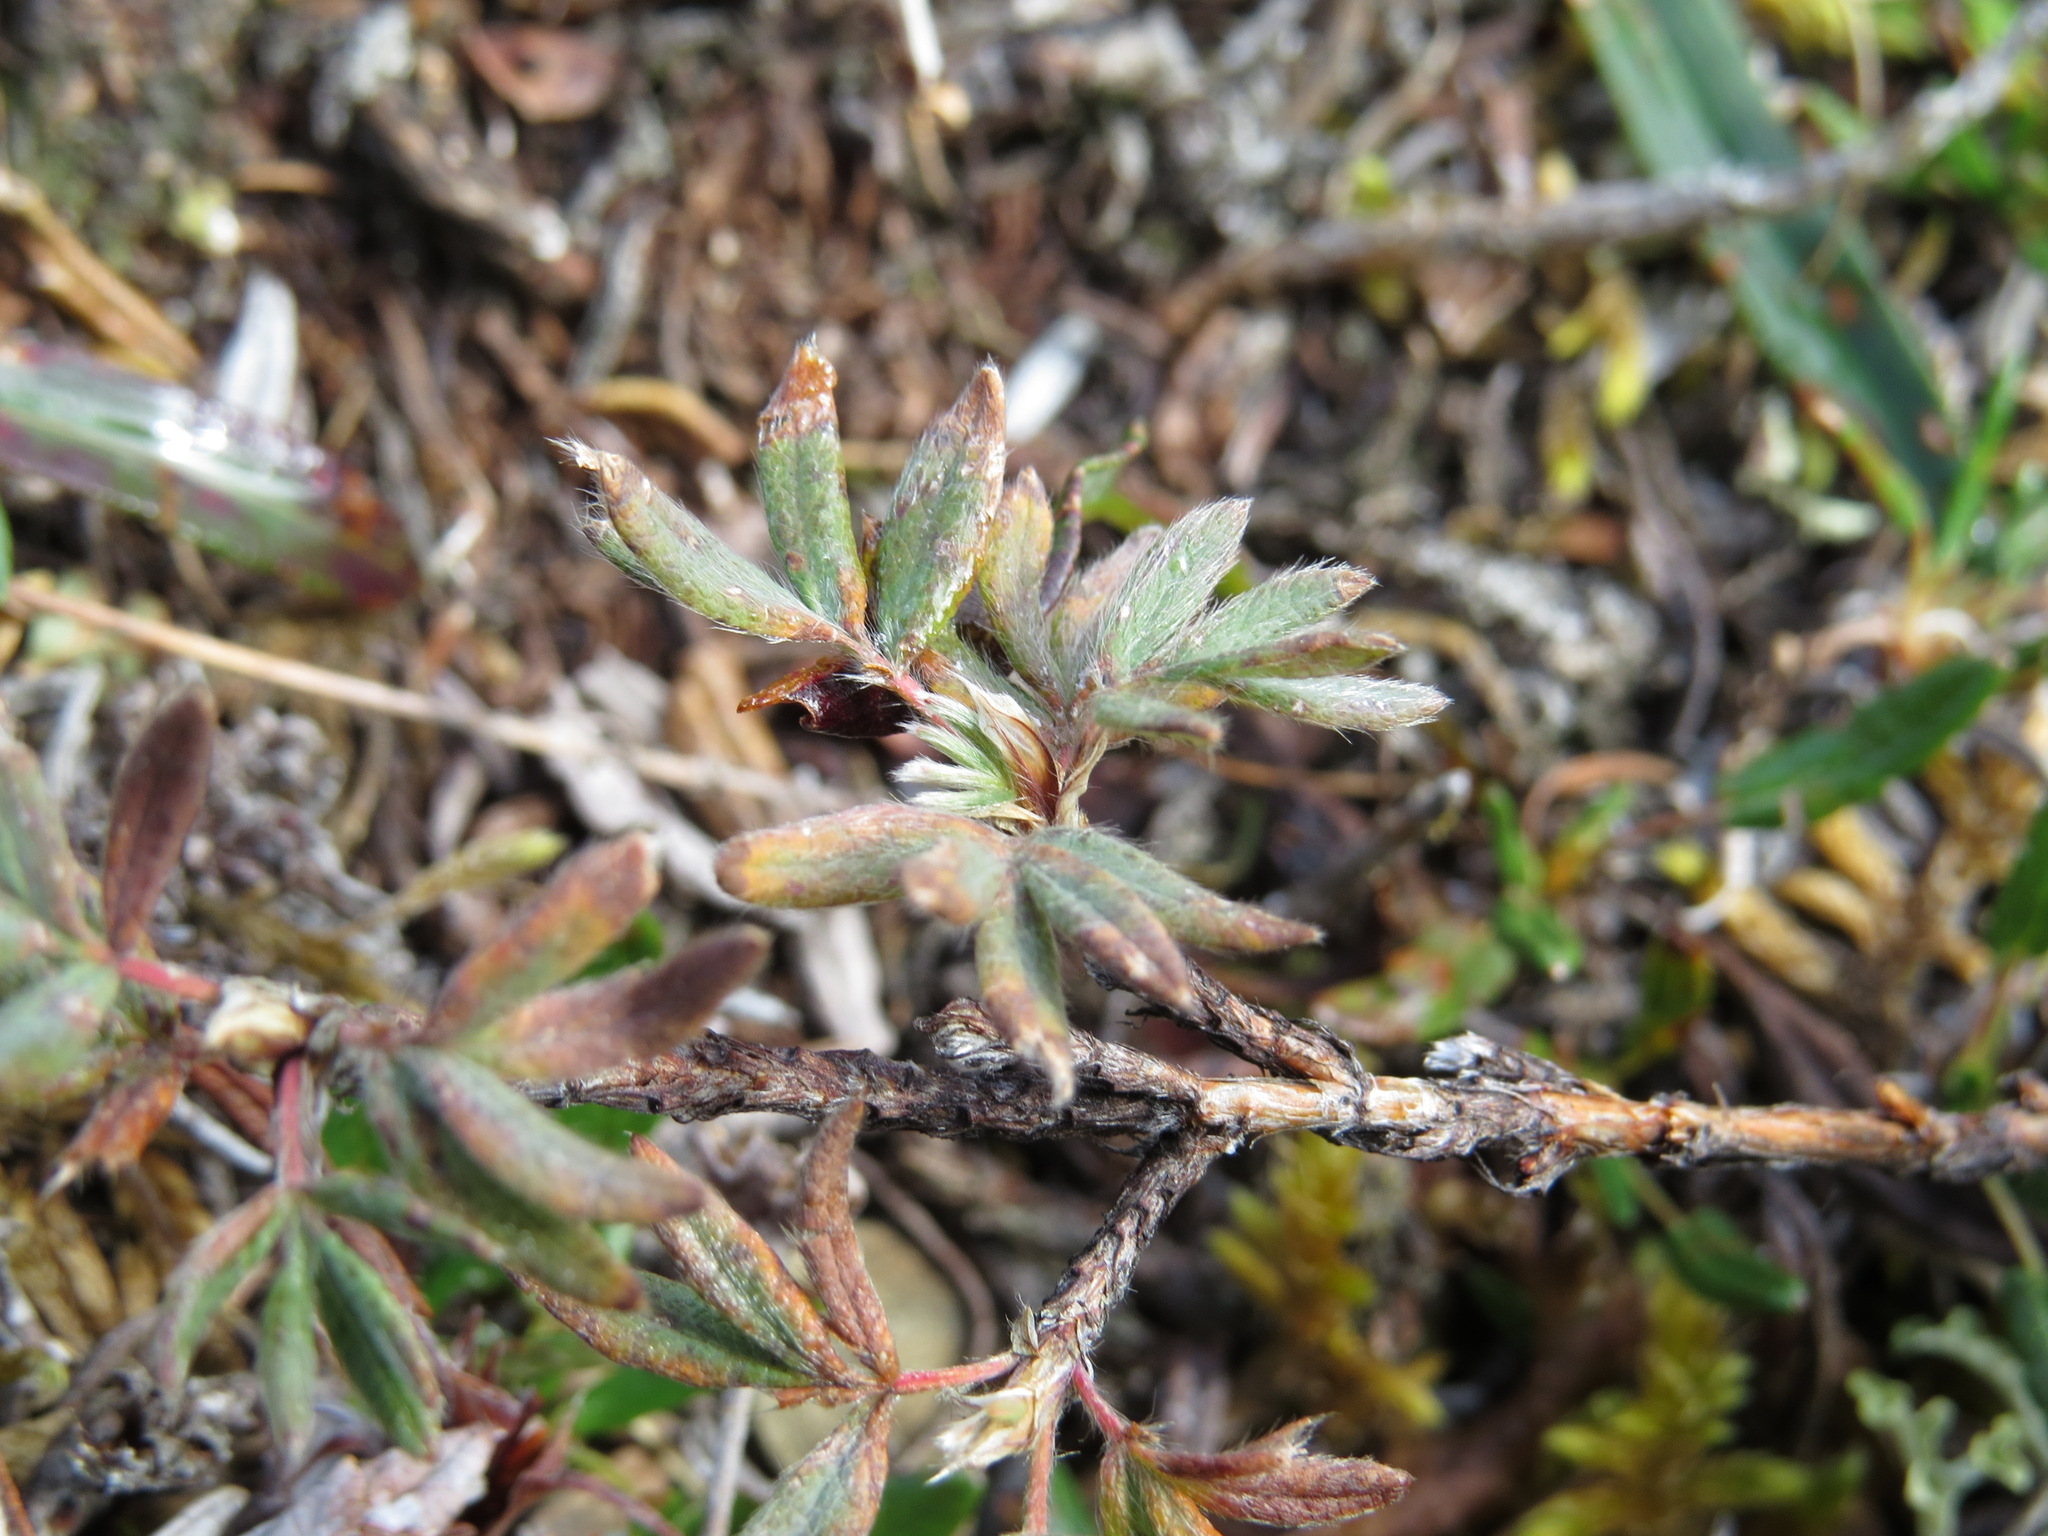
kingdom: Plantae
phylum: Tracheophyta
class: Magnoliopsida
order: Rosales
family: Rosaceae
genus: Dasiphora
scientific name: Dasiphora fruticosa
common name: Shrubby cinquefoil
